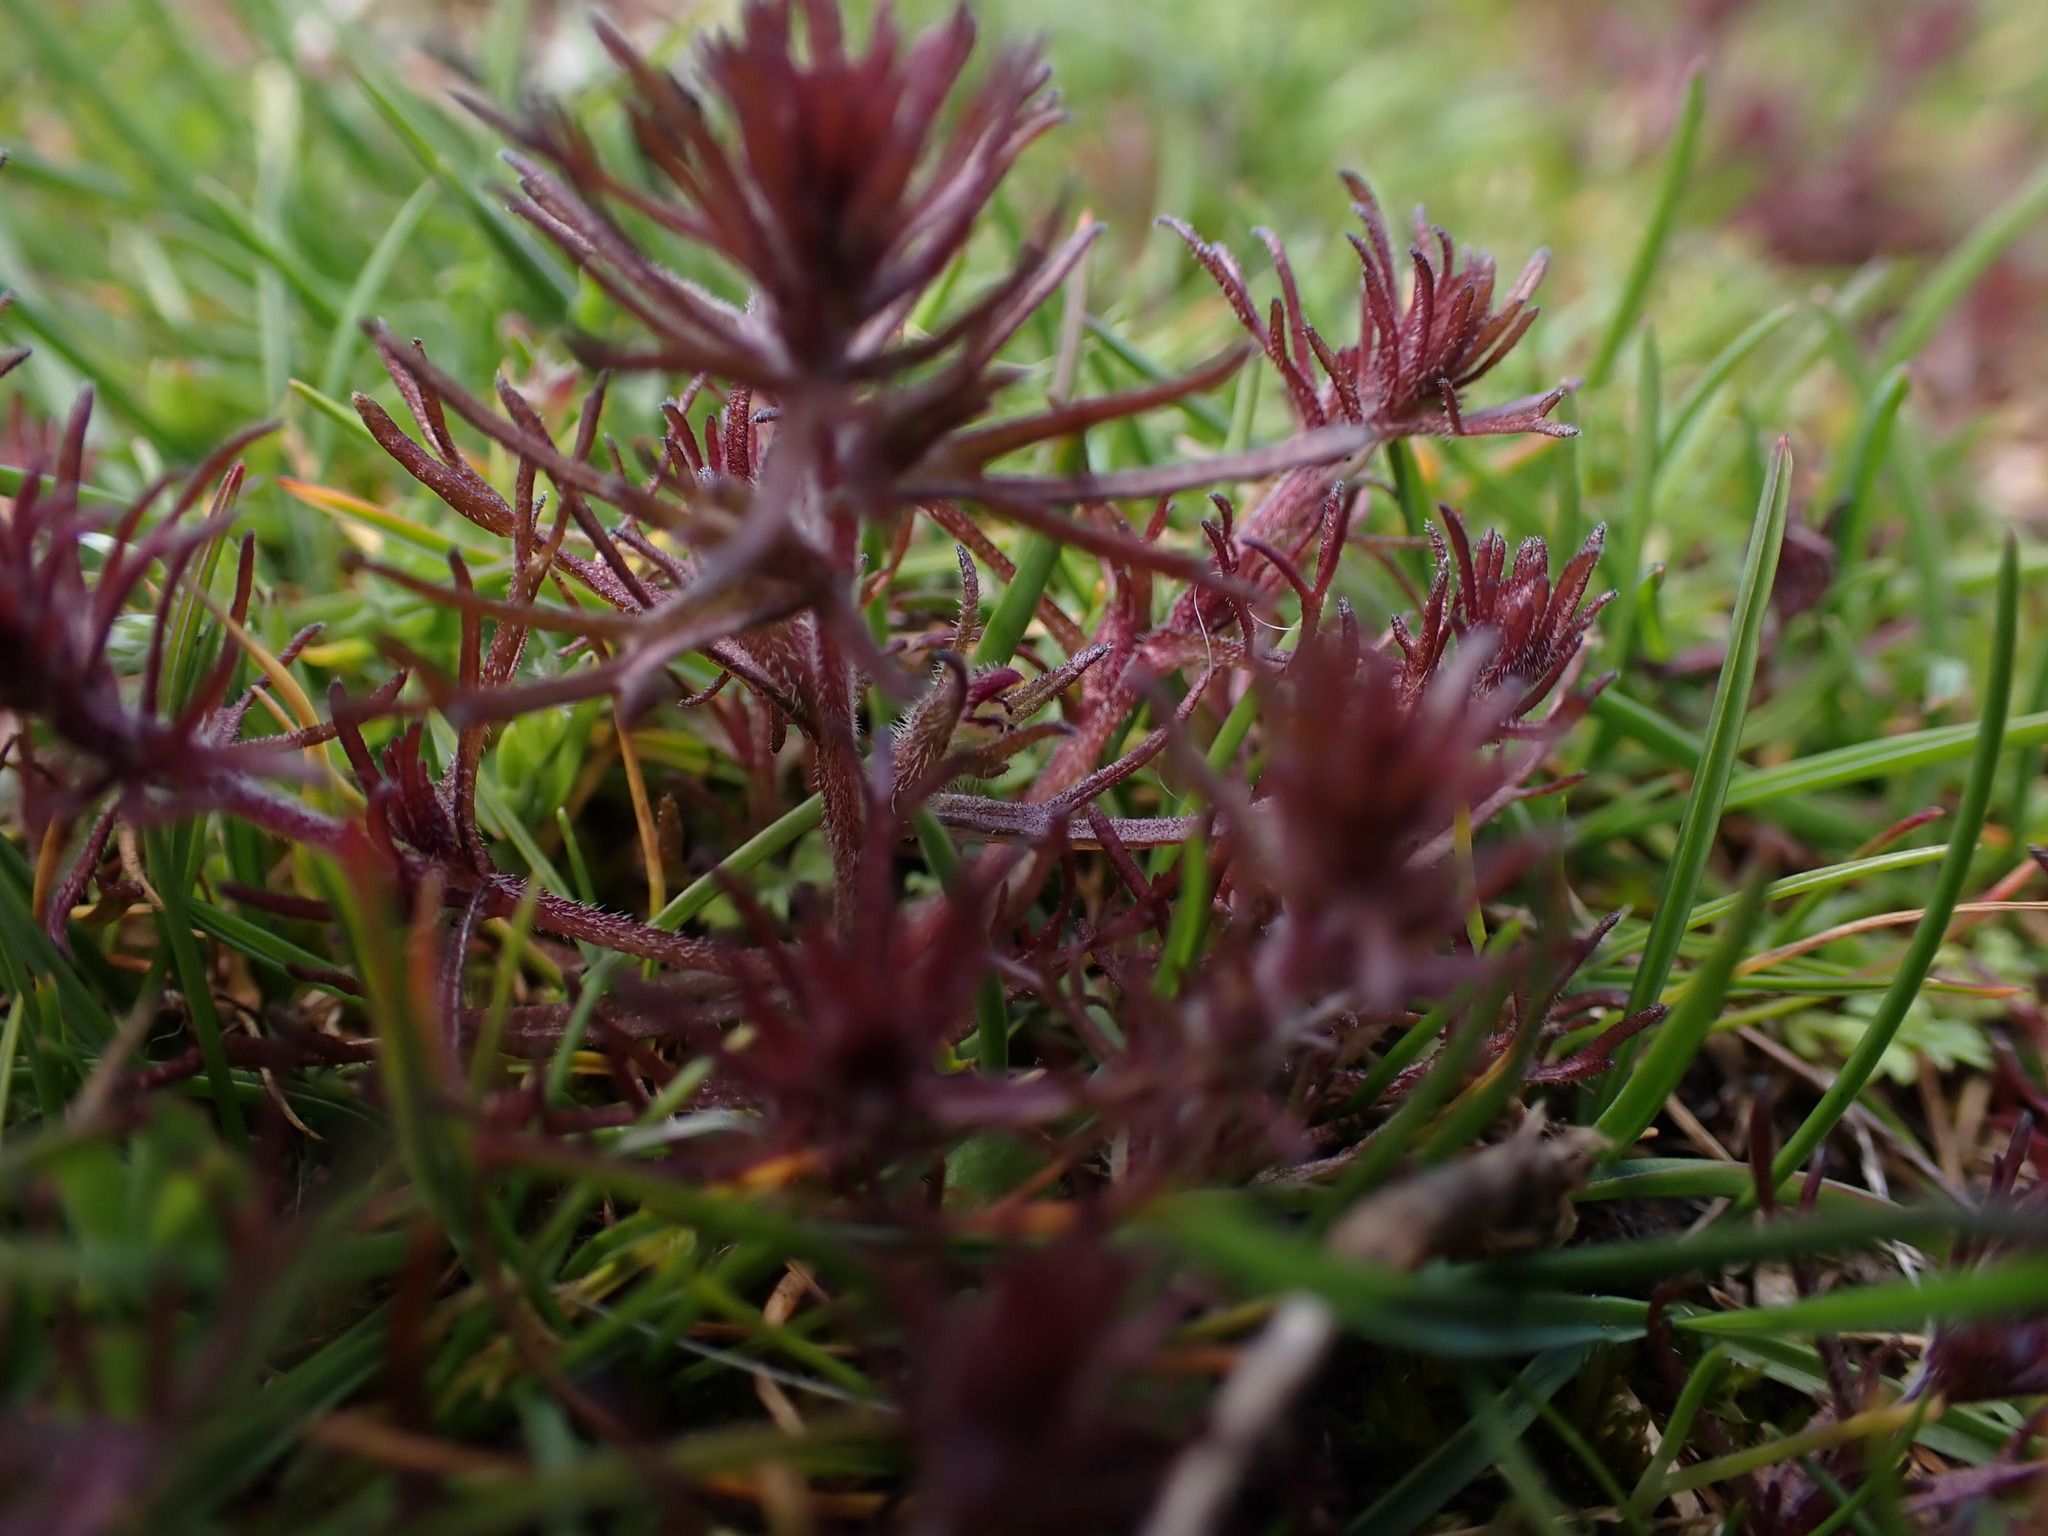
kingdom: Plantae
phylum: Tracheophyta
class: Magnoliopsida
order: Lamiales
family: Orobanchaceae
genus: Triphysaria
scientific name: Triphysaria pusilla
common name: Dwarf false owl-clover
